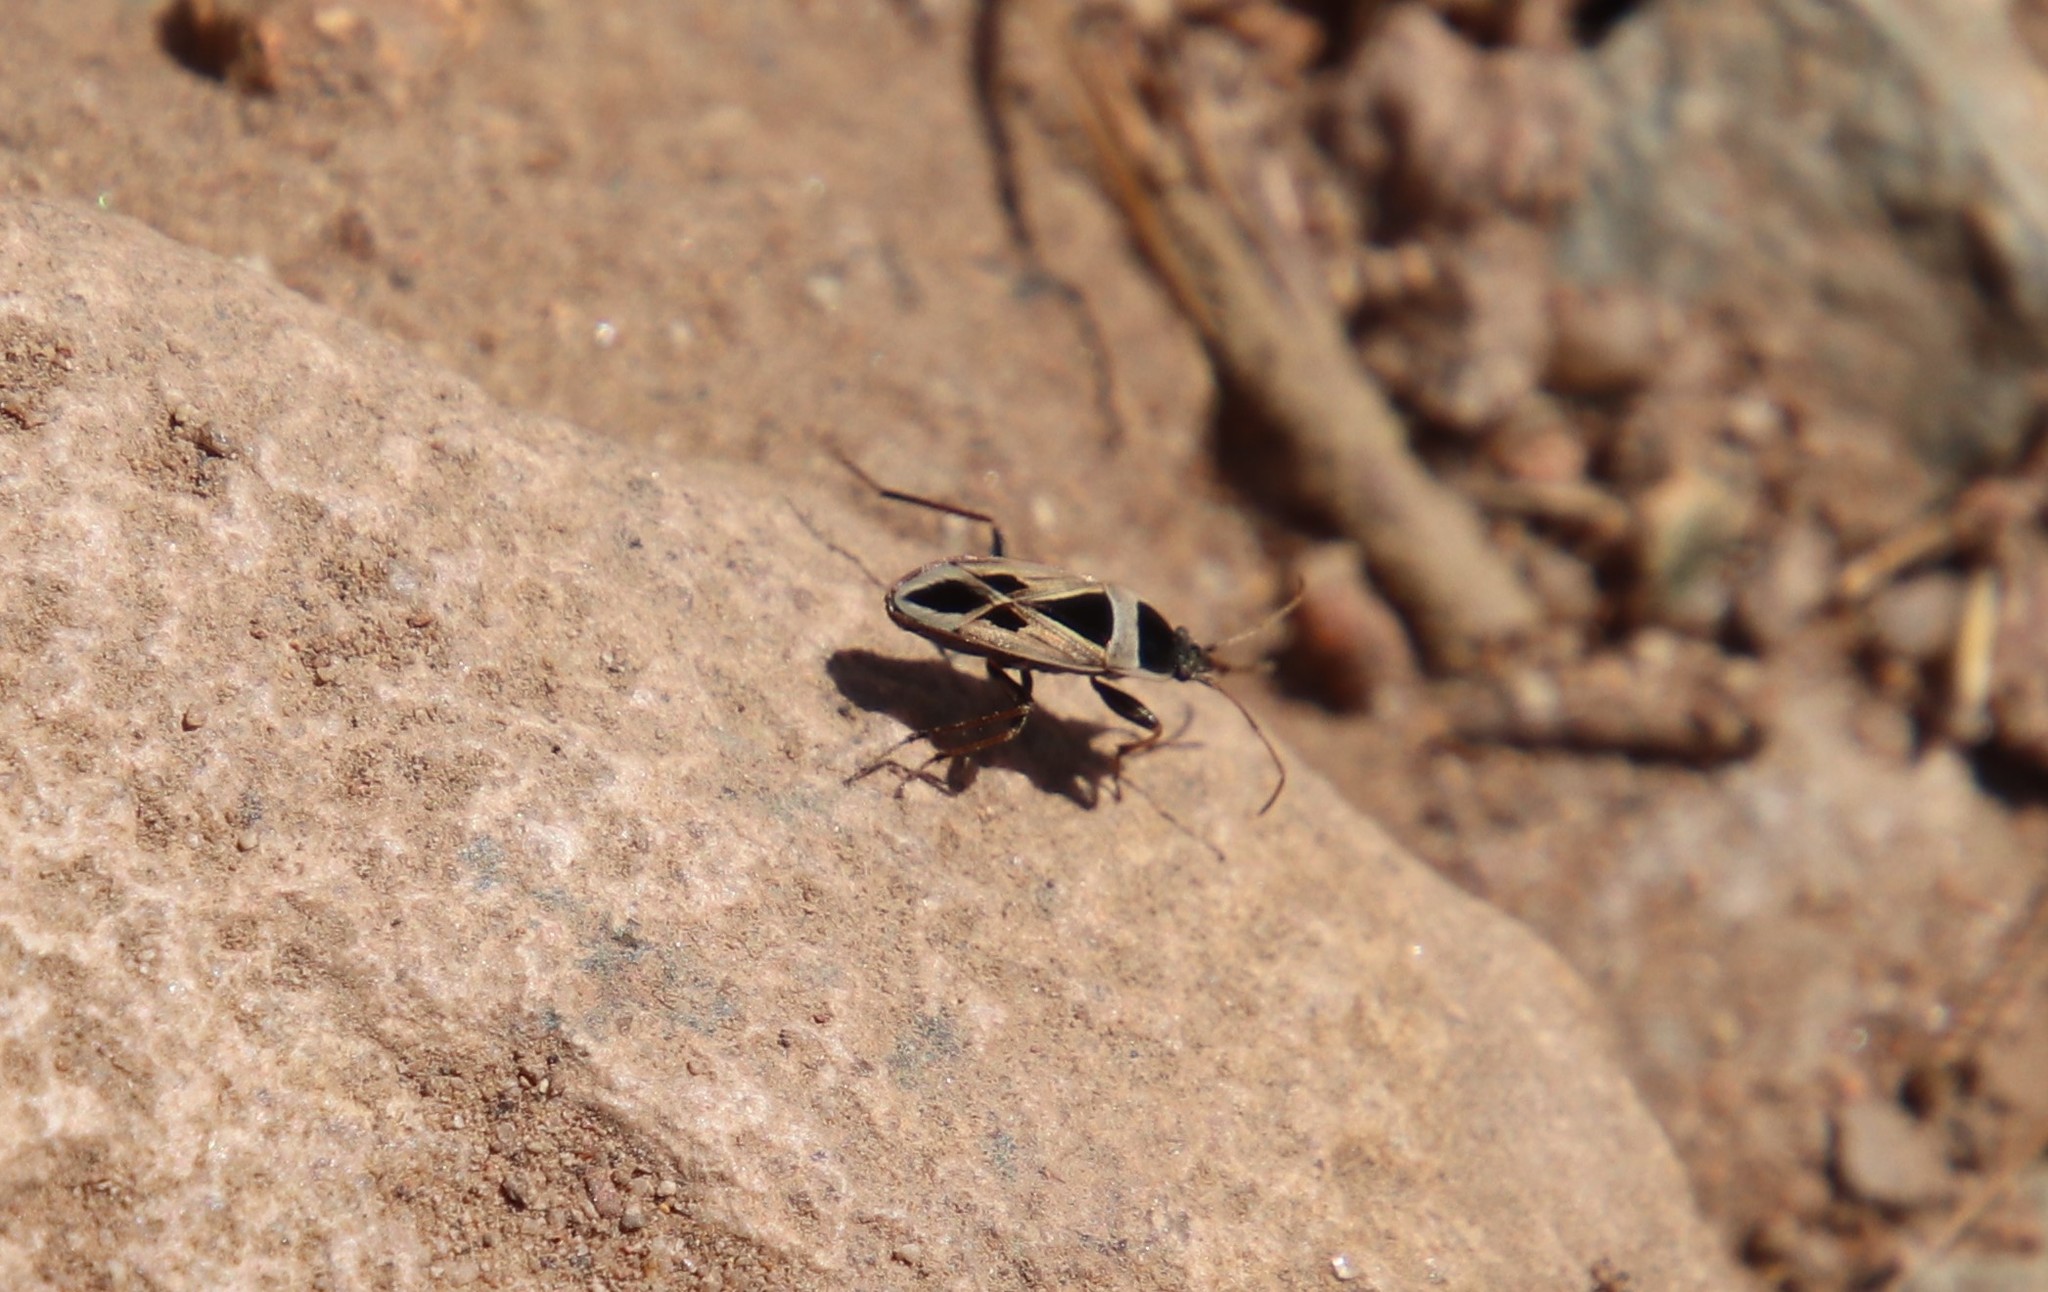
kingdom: Animalia
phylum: Arthropoda
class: Insecta
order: Hemiptera
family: Rhyparochromidae
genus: Xanthochilus
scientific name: Xanthochilus saturnius
